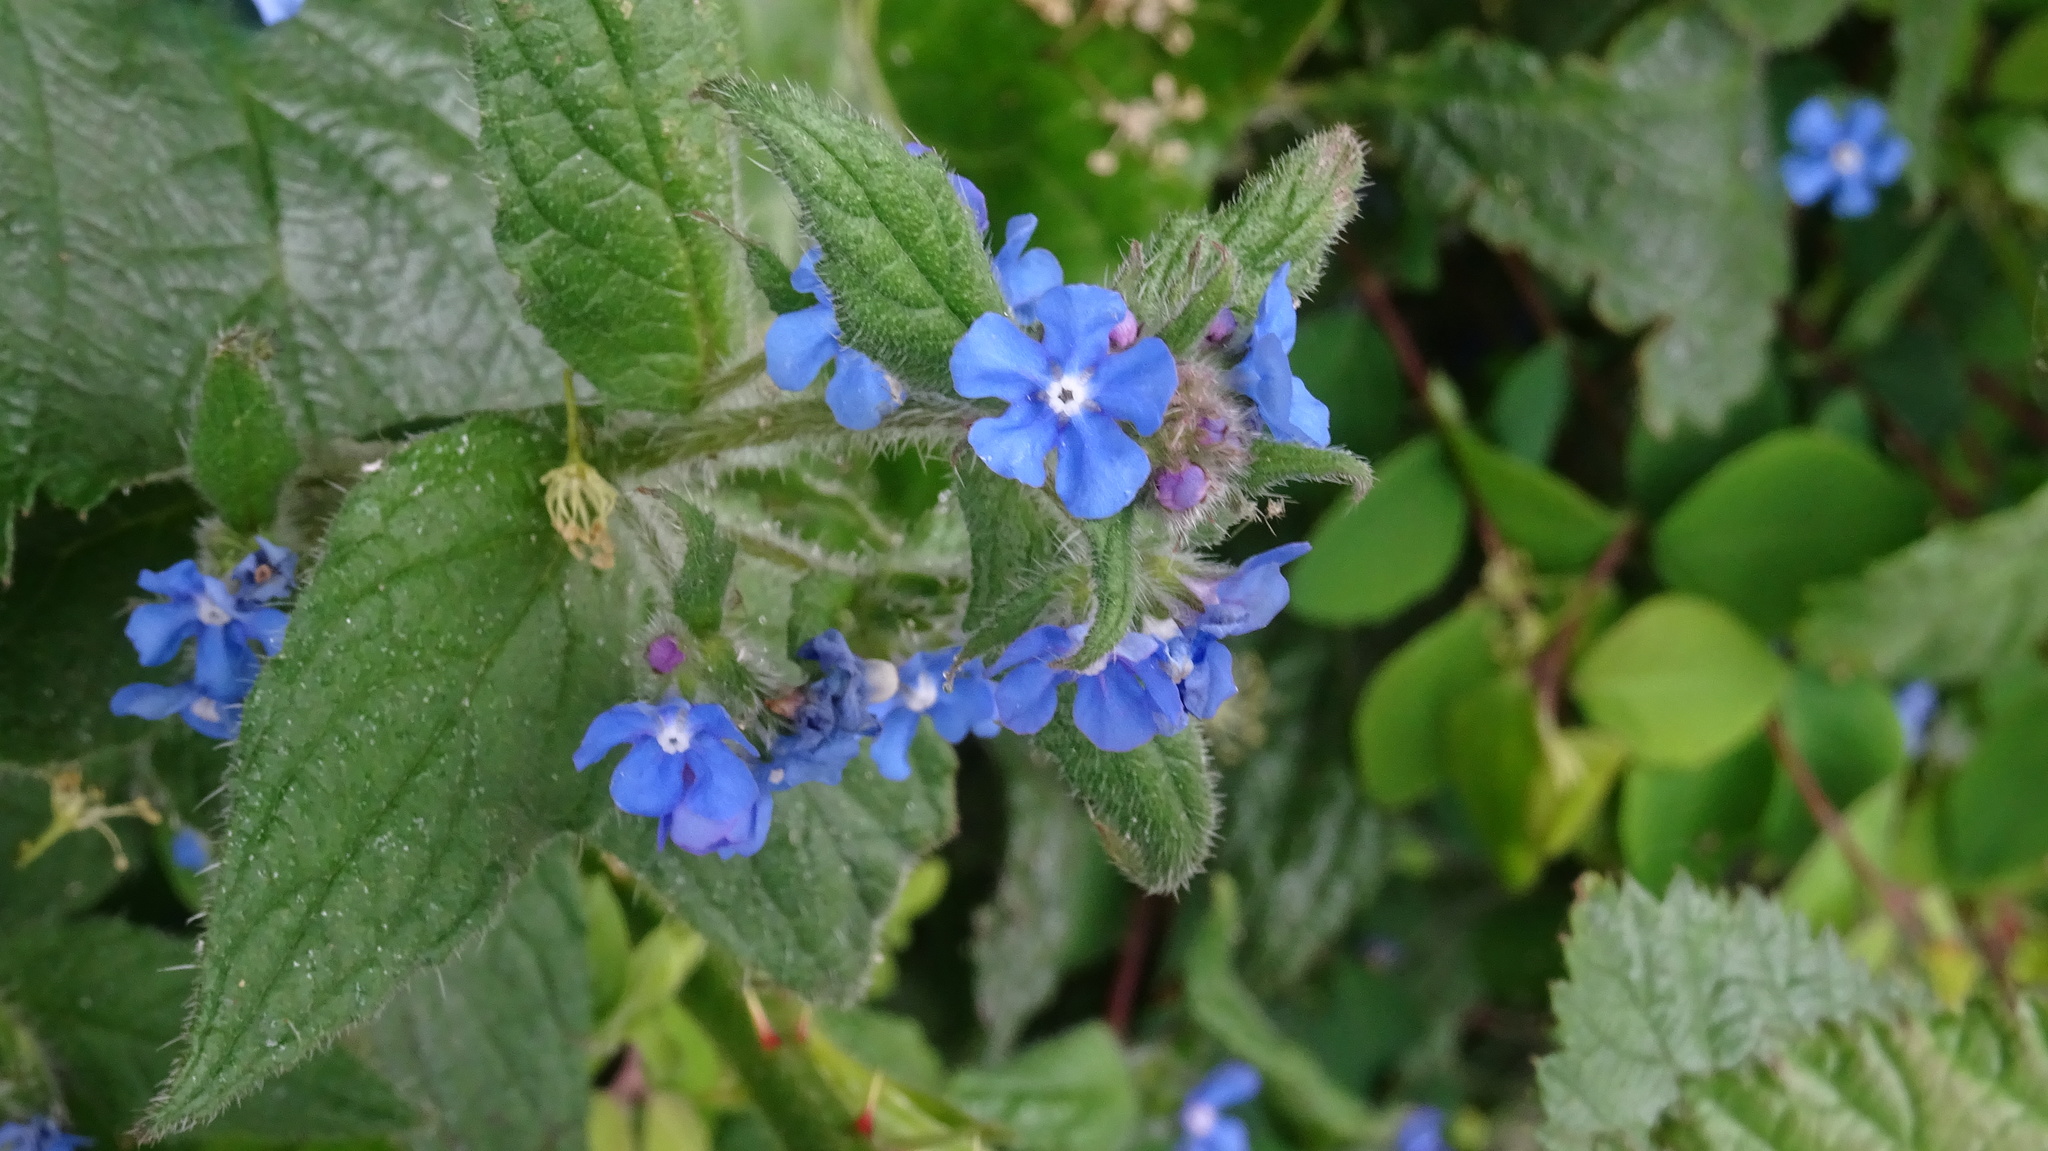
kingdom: Plantae
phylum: Tracheophyta
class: Magnoliopsida
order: Boraginales
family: Boraginaceae
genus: Pentaglottis
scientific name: Pentaglottis sempervirens
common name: Green alkanet
